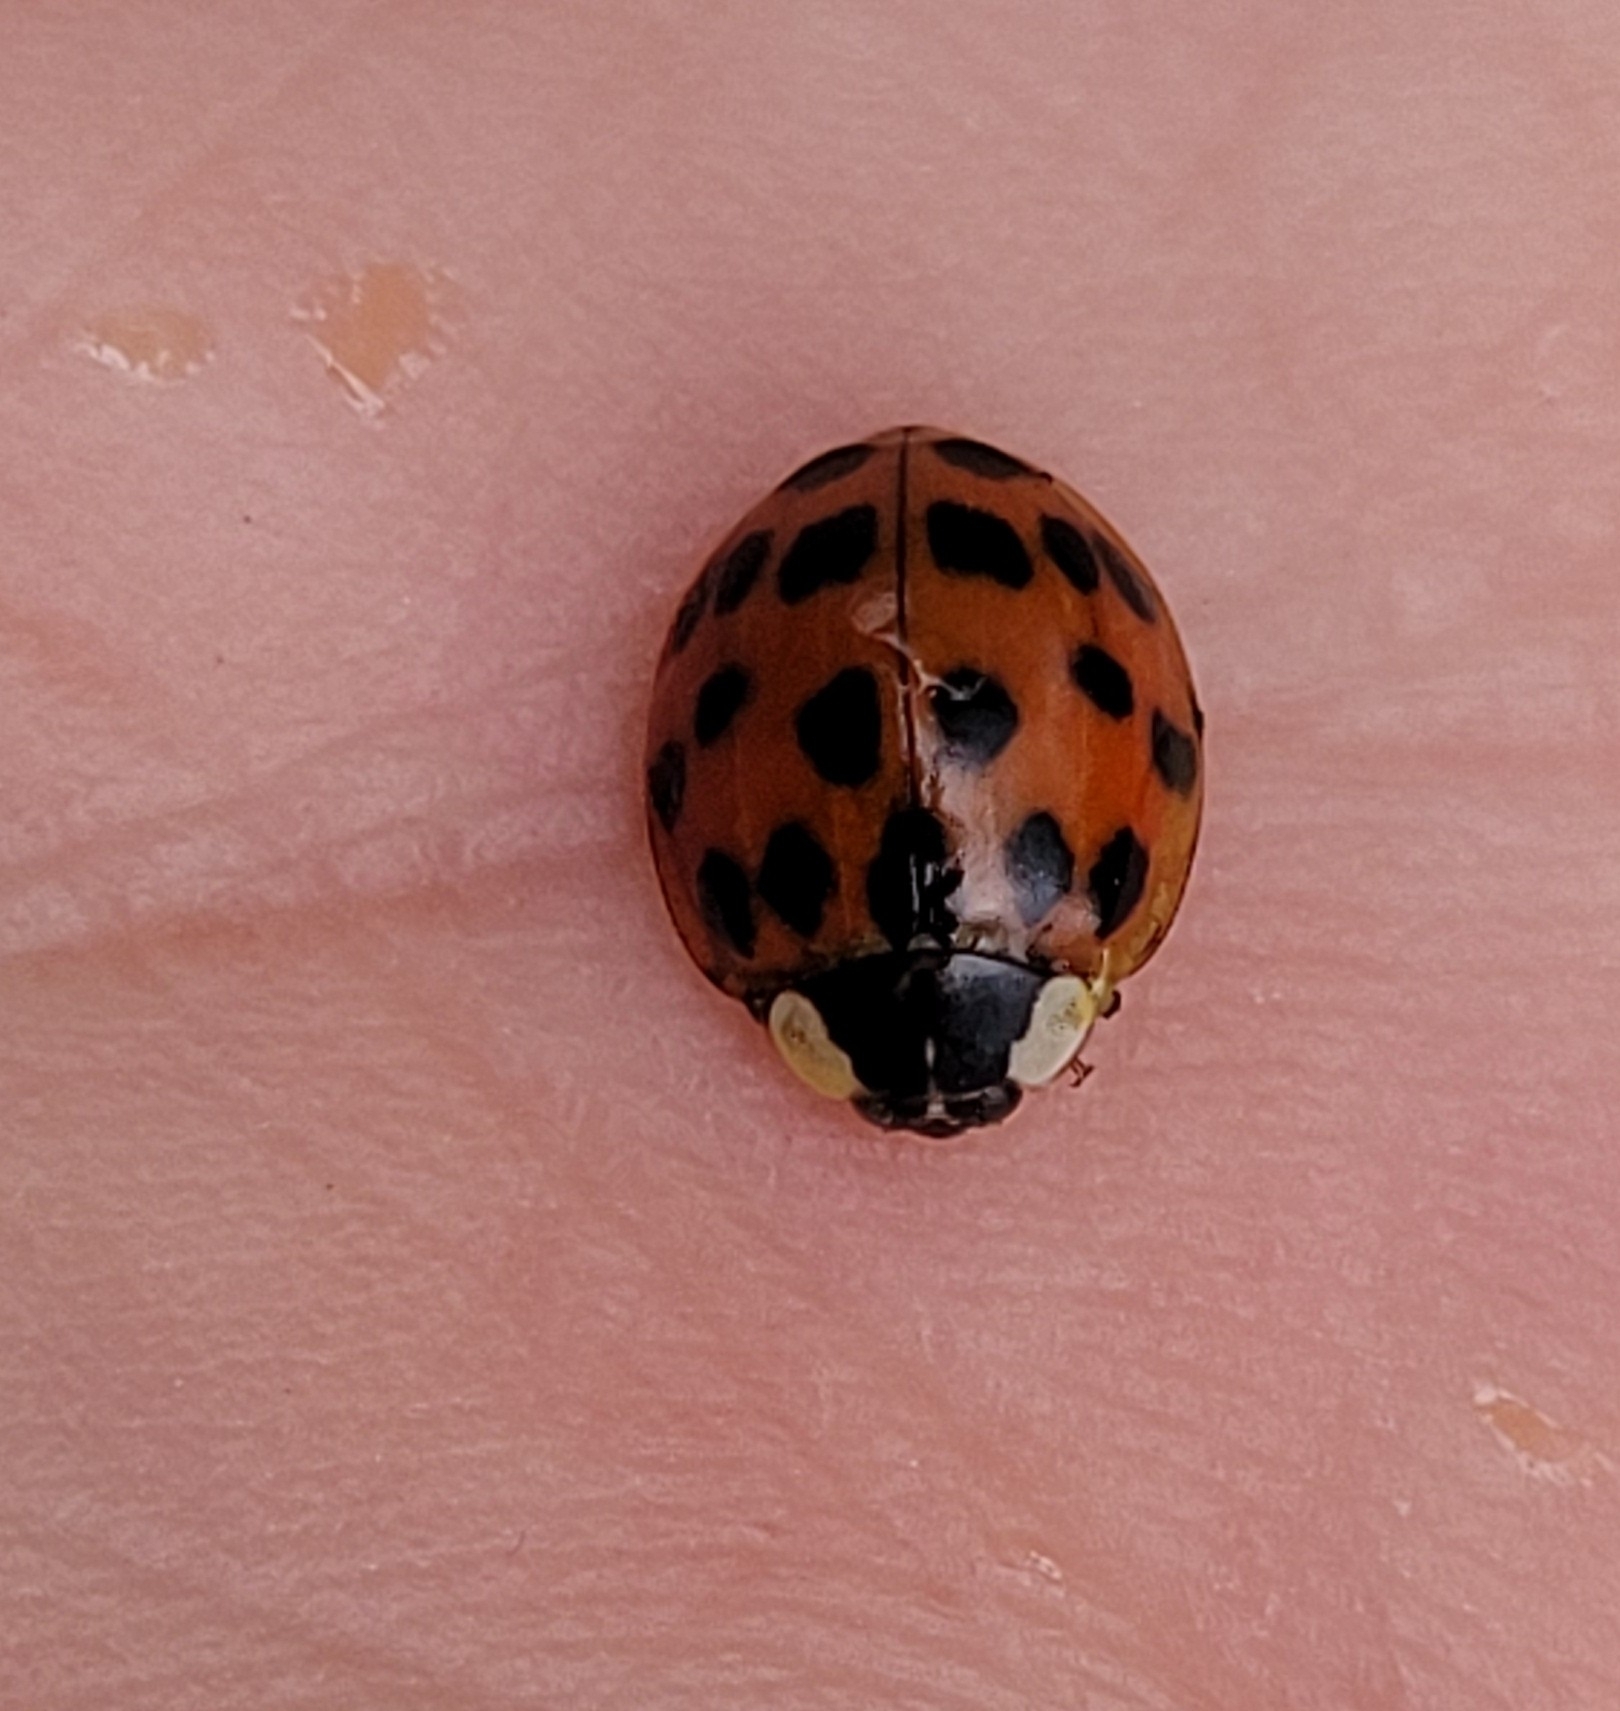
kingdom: Animalia
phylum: Arthropoda
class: Insecta
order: Coleoptera
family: Coccinellidae
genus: Harmonia
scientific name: Harmonia axyridis
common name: Harlequin ladybird
